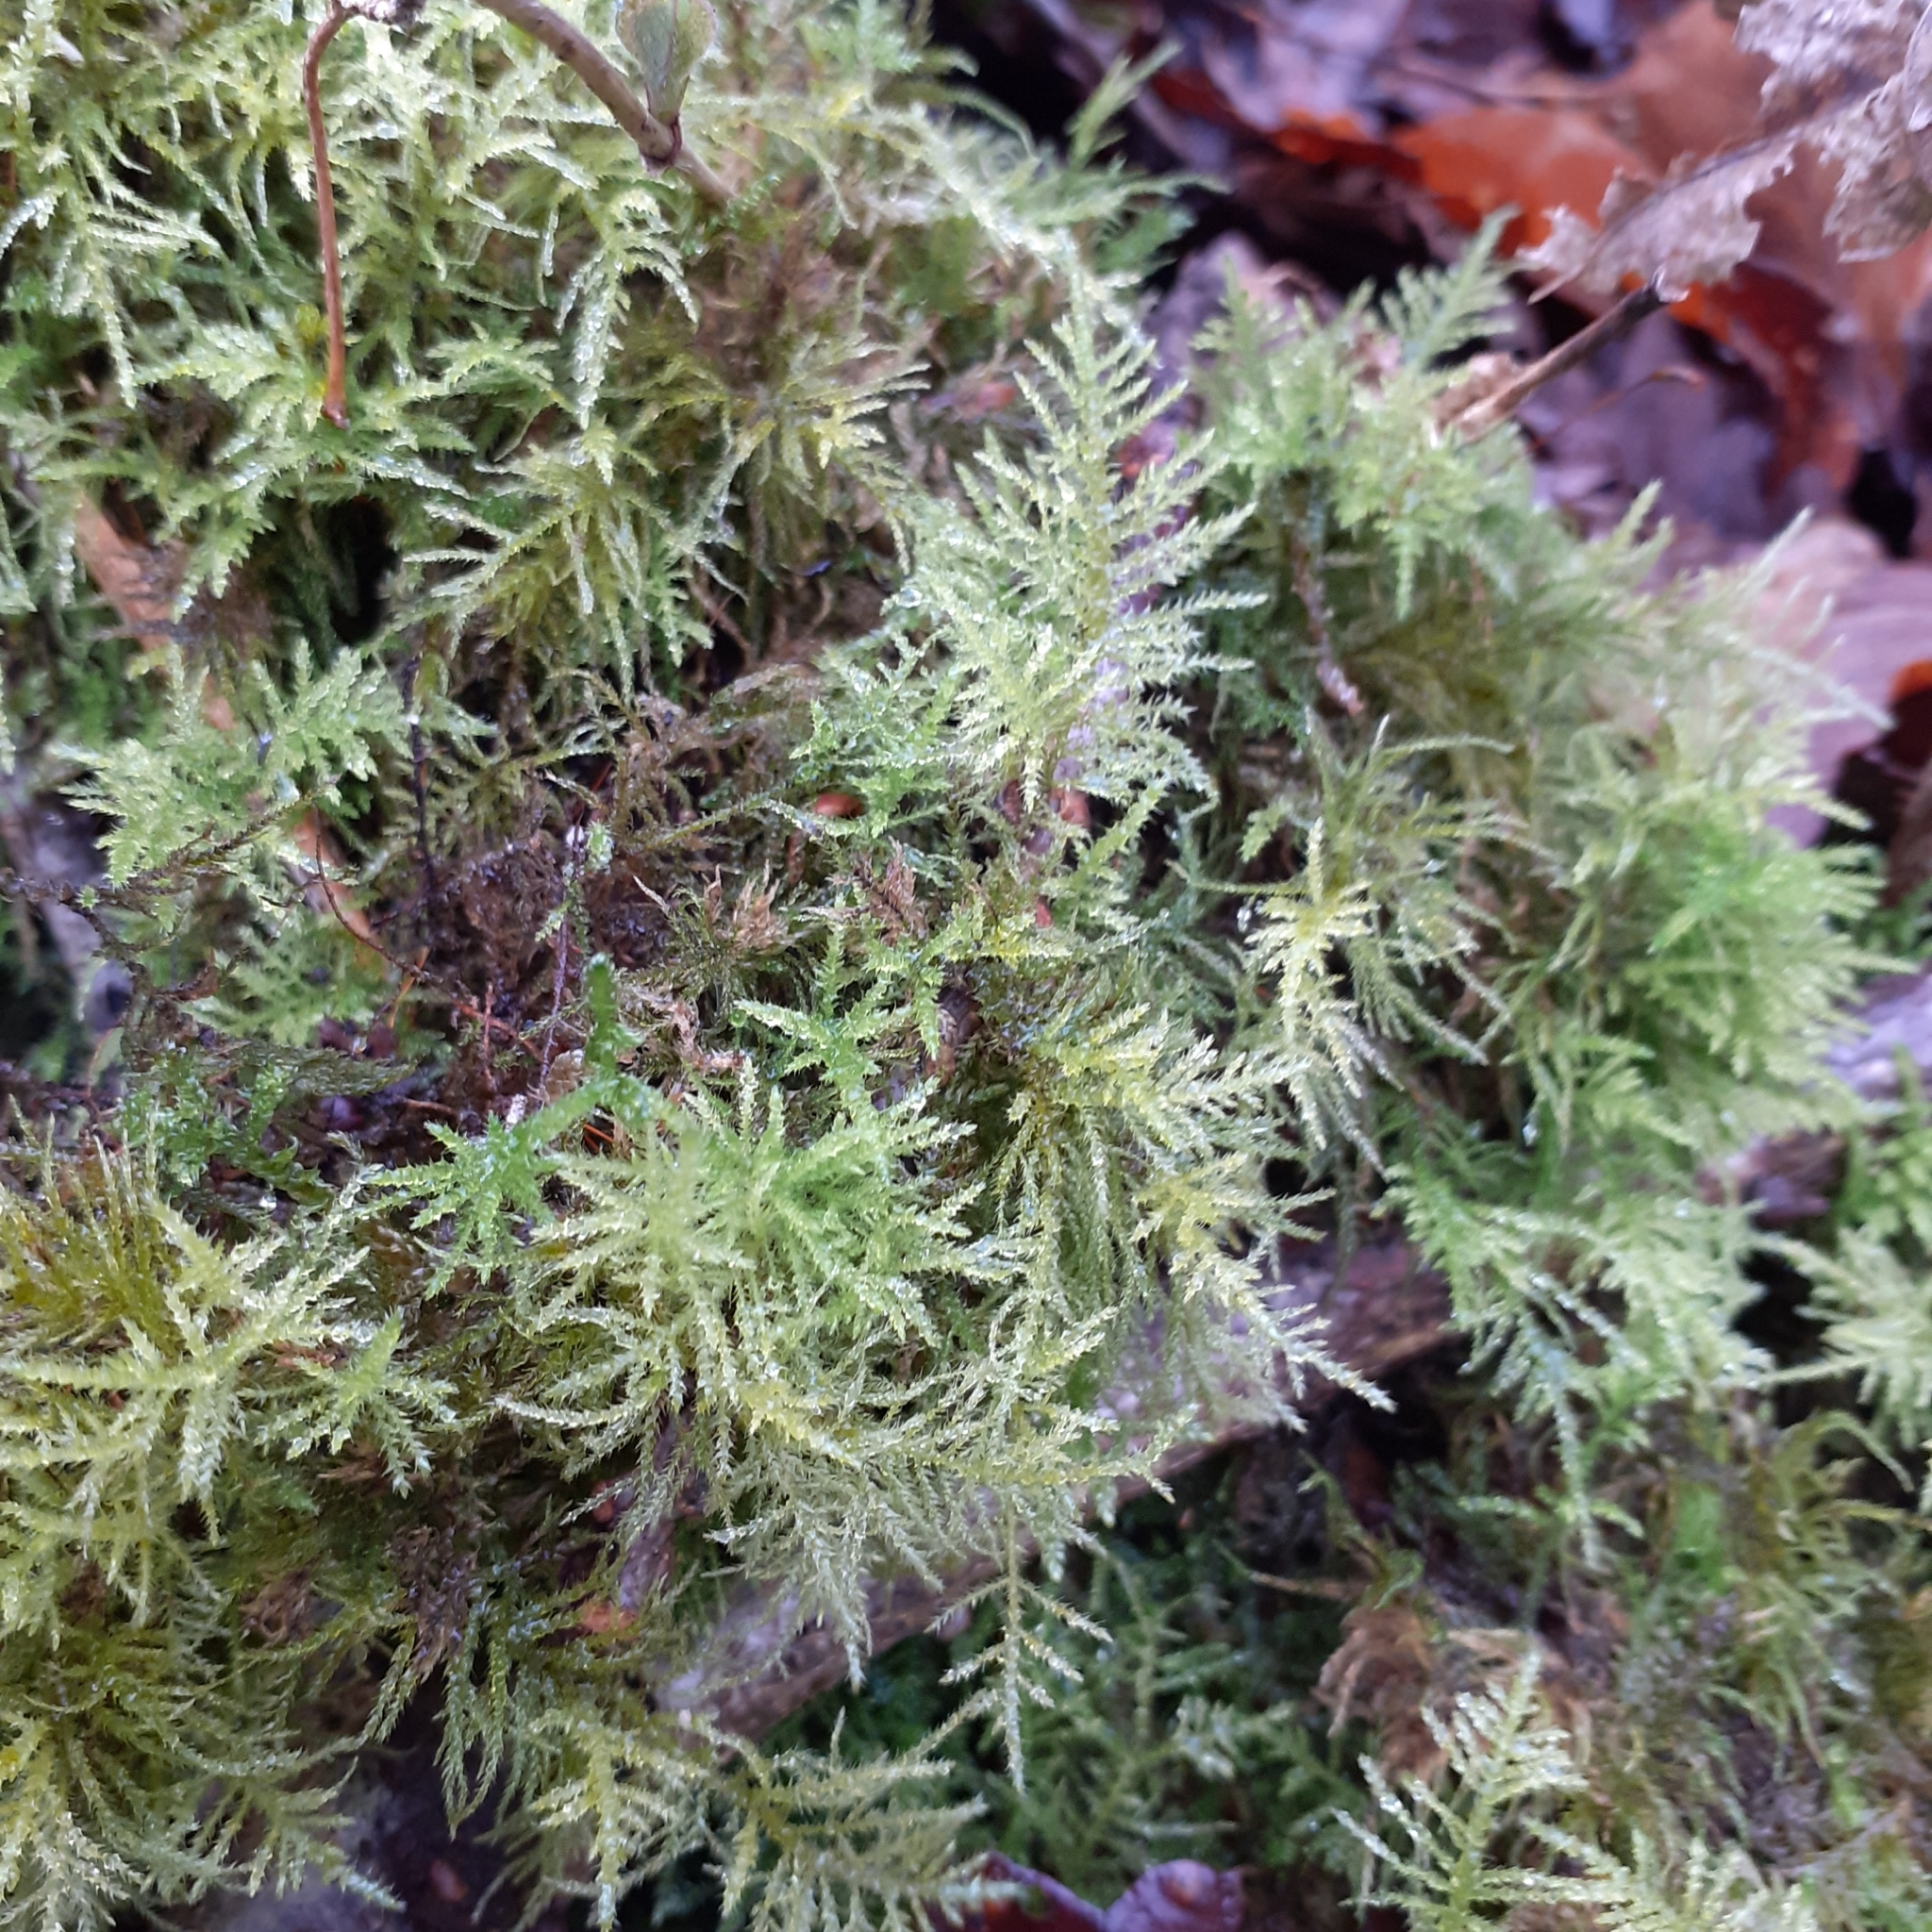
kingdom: Plantae
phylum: Bryophyta
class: Bryopsida
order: Hypnales
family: Brachytheciaceae
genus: Kindbergia
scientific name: Kindbergia praelonga
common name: Slender beaked moss
